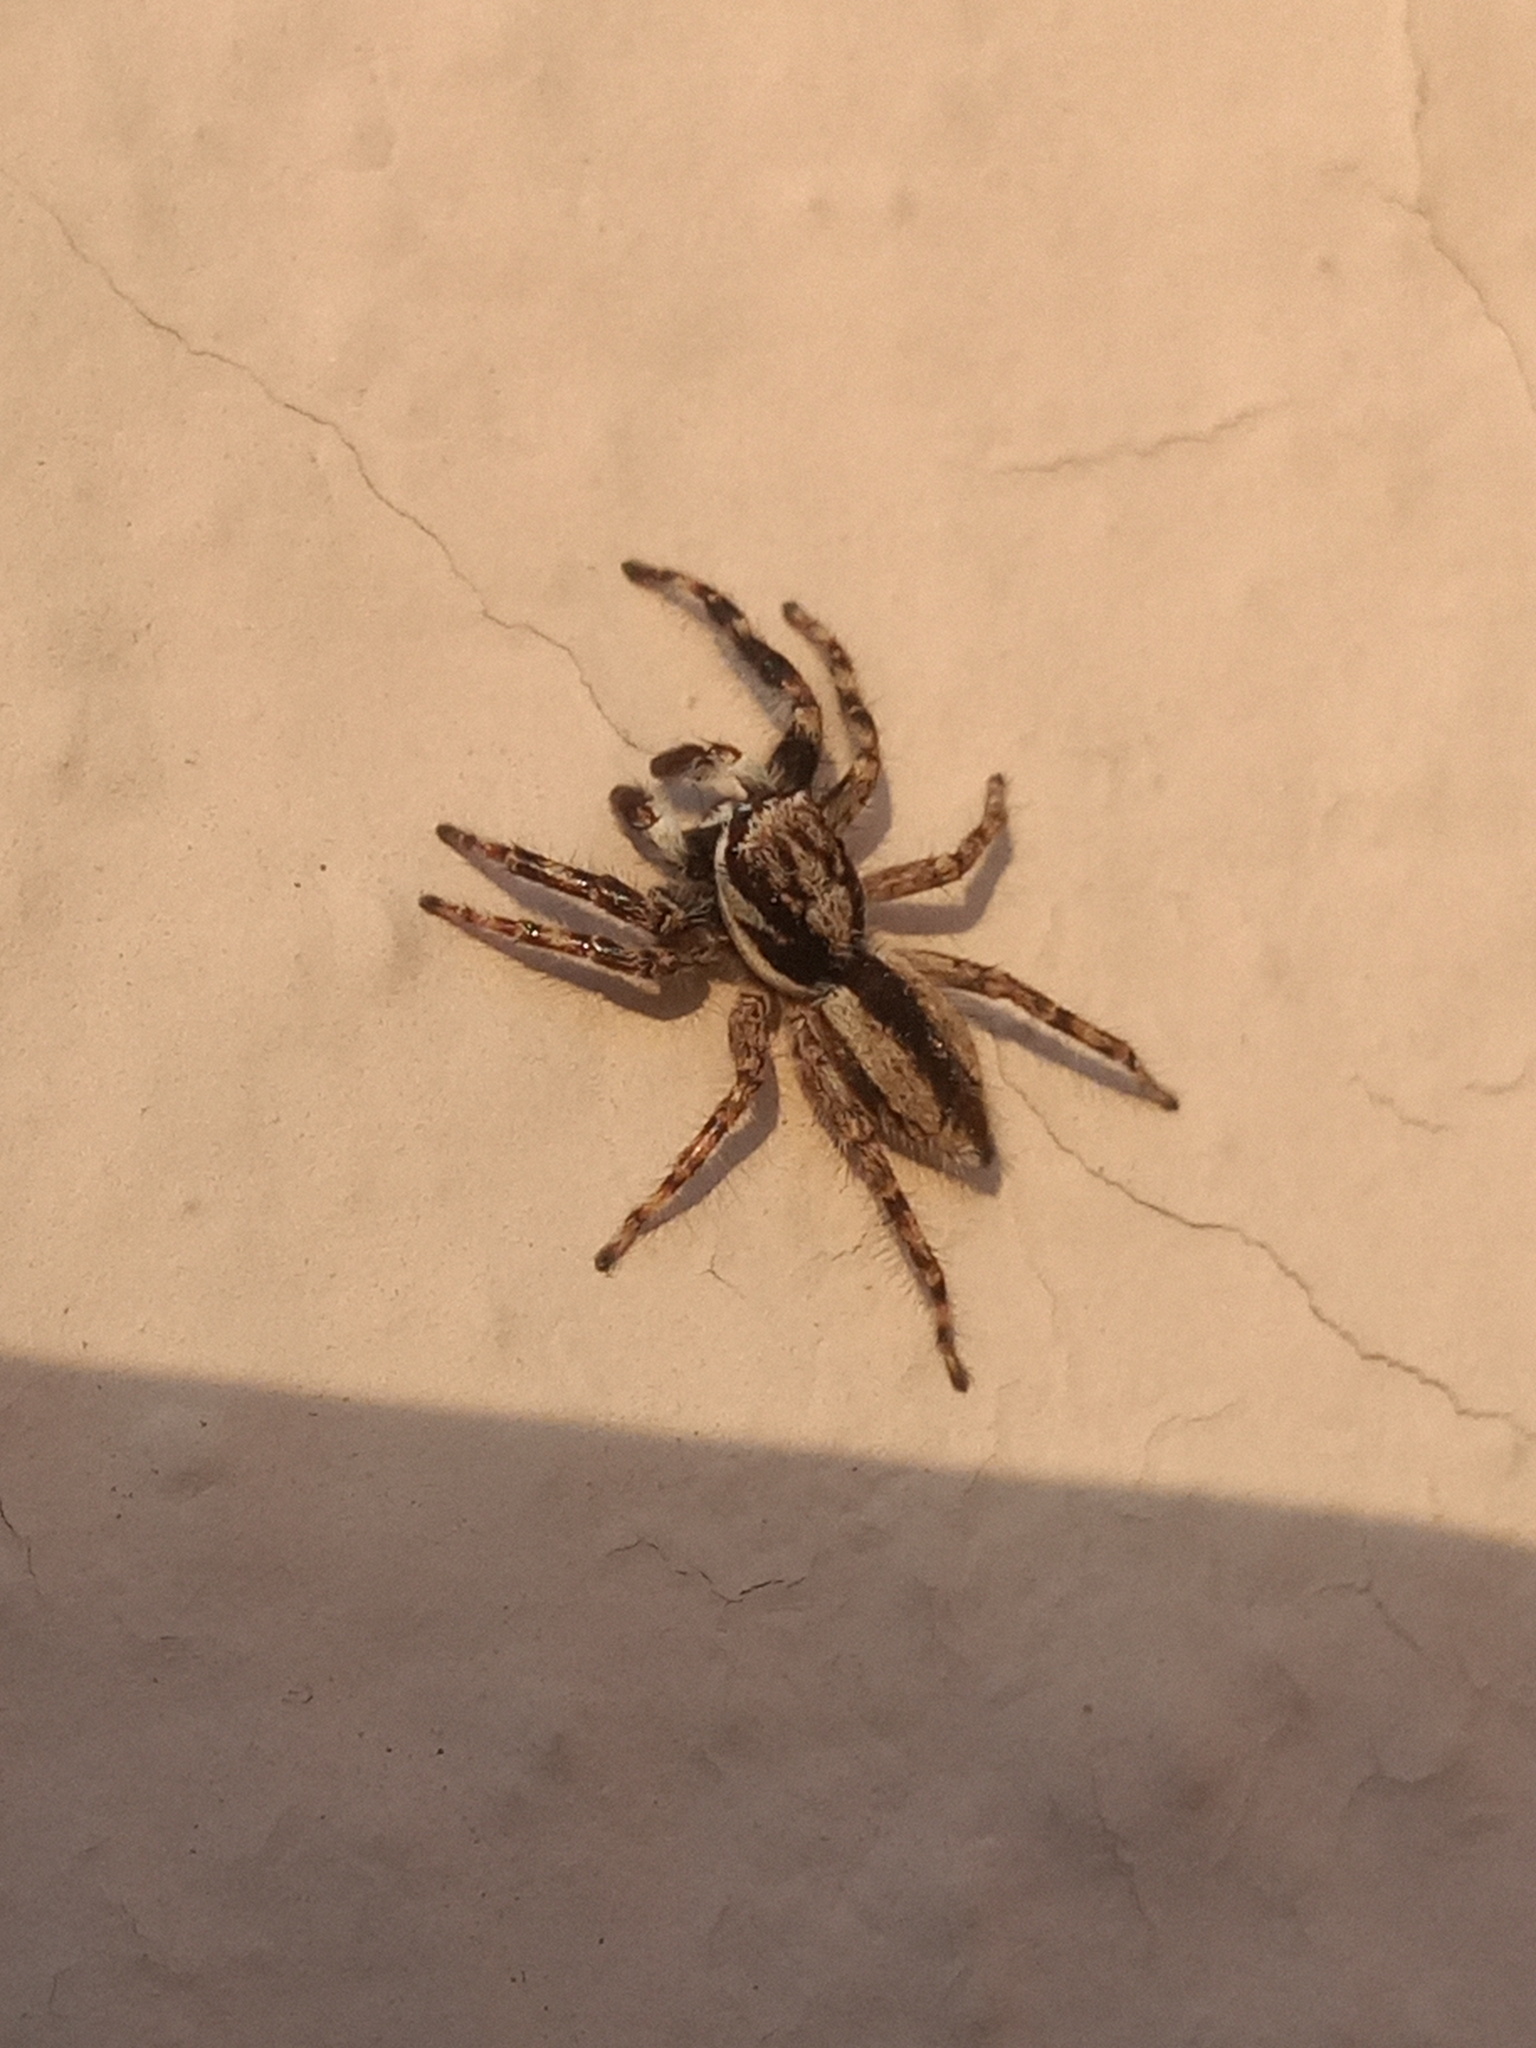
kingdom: Animalia
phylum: Arthropoda
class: Arachnida
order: Araneae
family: Salticidae
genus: Menemerus
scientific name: Menemerus bivittatus
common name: Gray wall jumper
